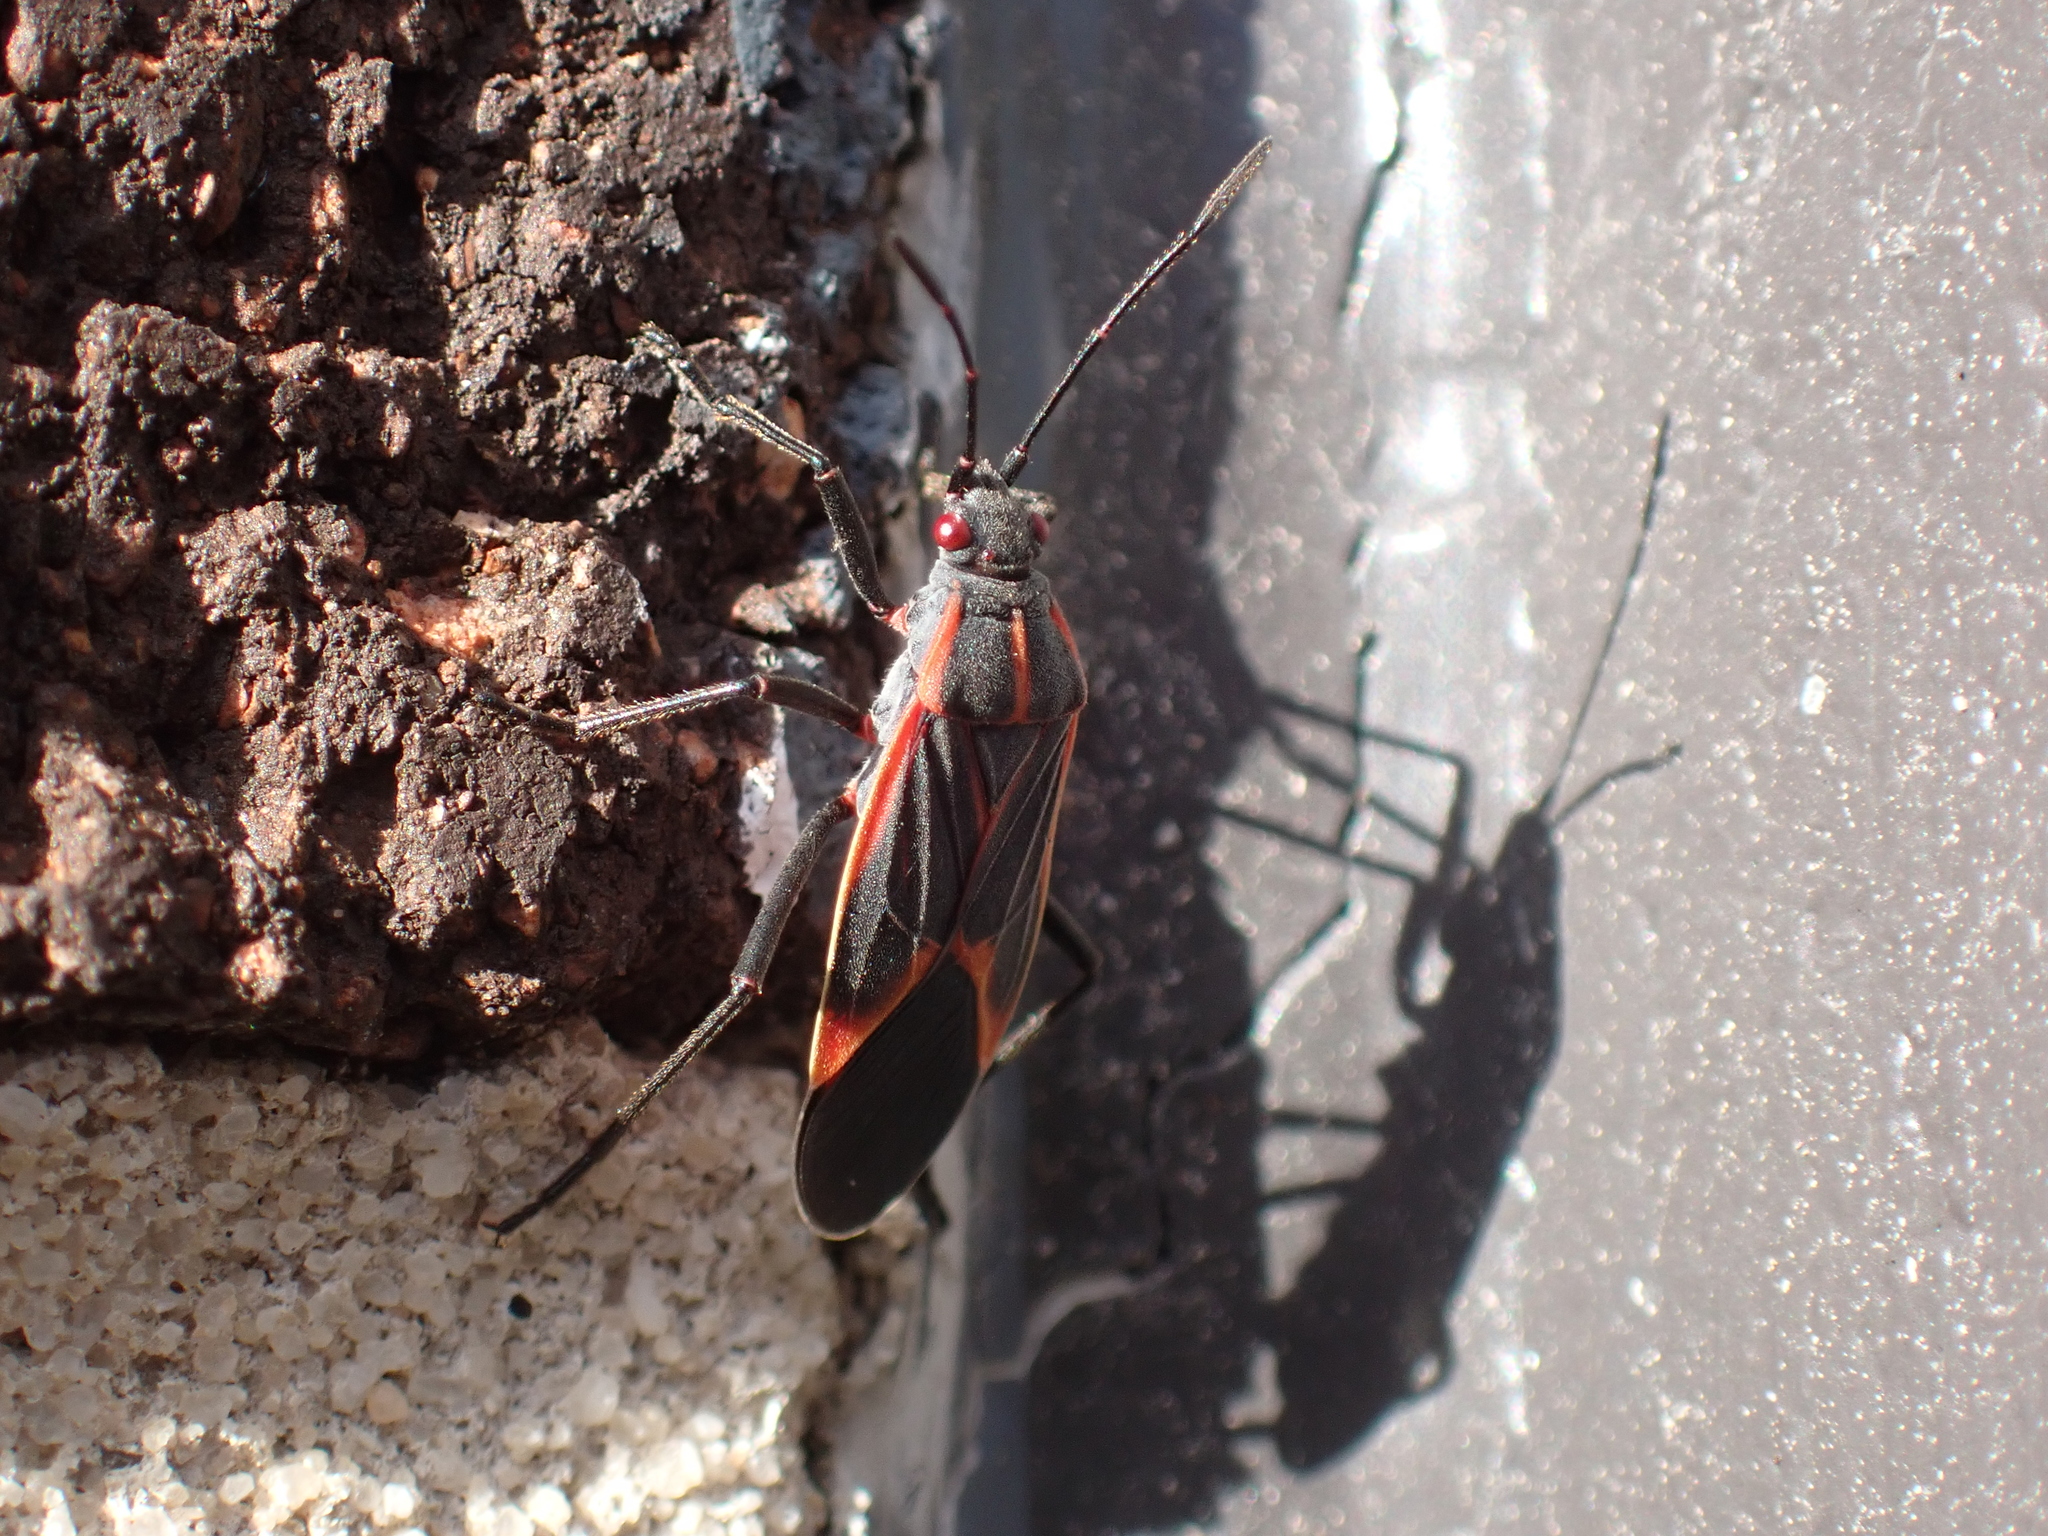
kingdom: Animalia
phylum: Arthropoda
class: Insecta
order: Hemiptera
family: Rhopalidae
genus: Boisea
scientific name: Boisea trivittata
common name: Boxelder bug
